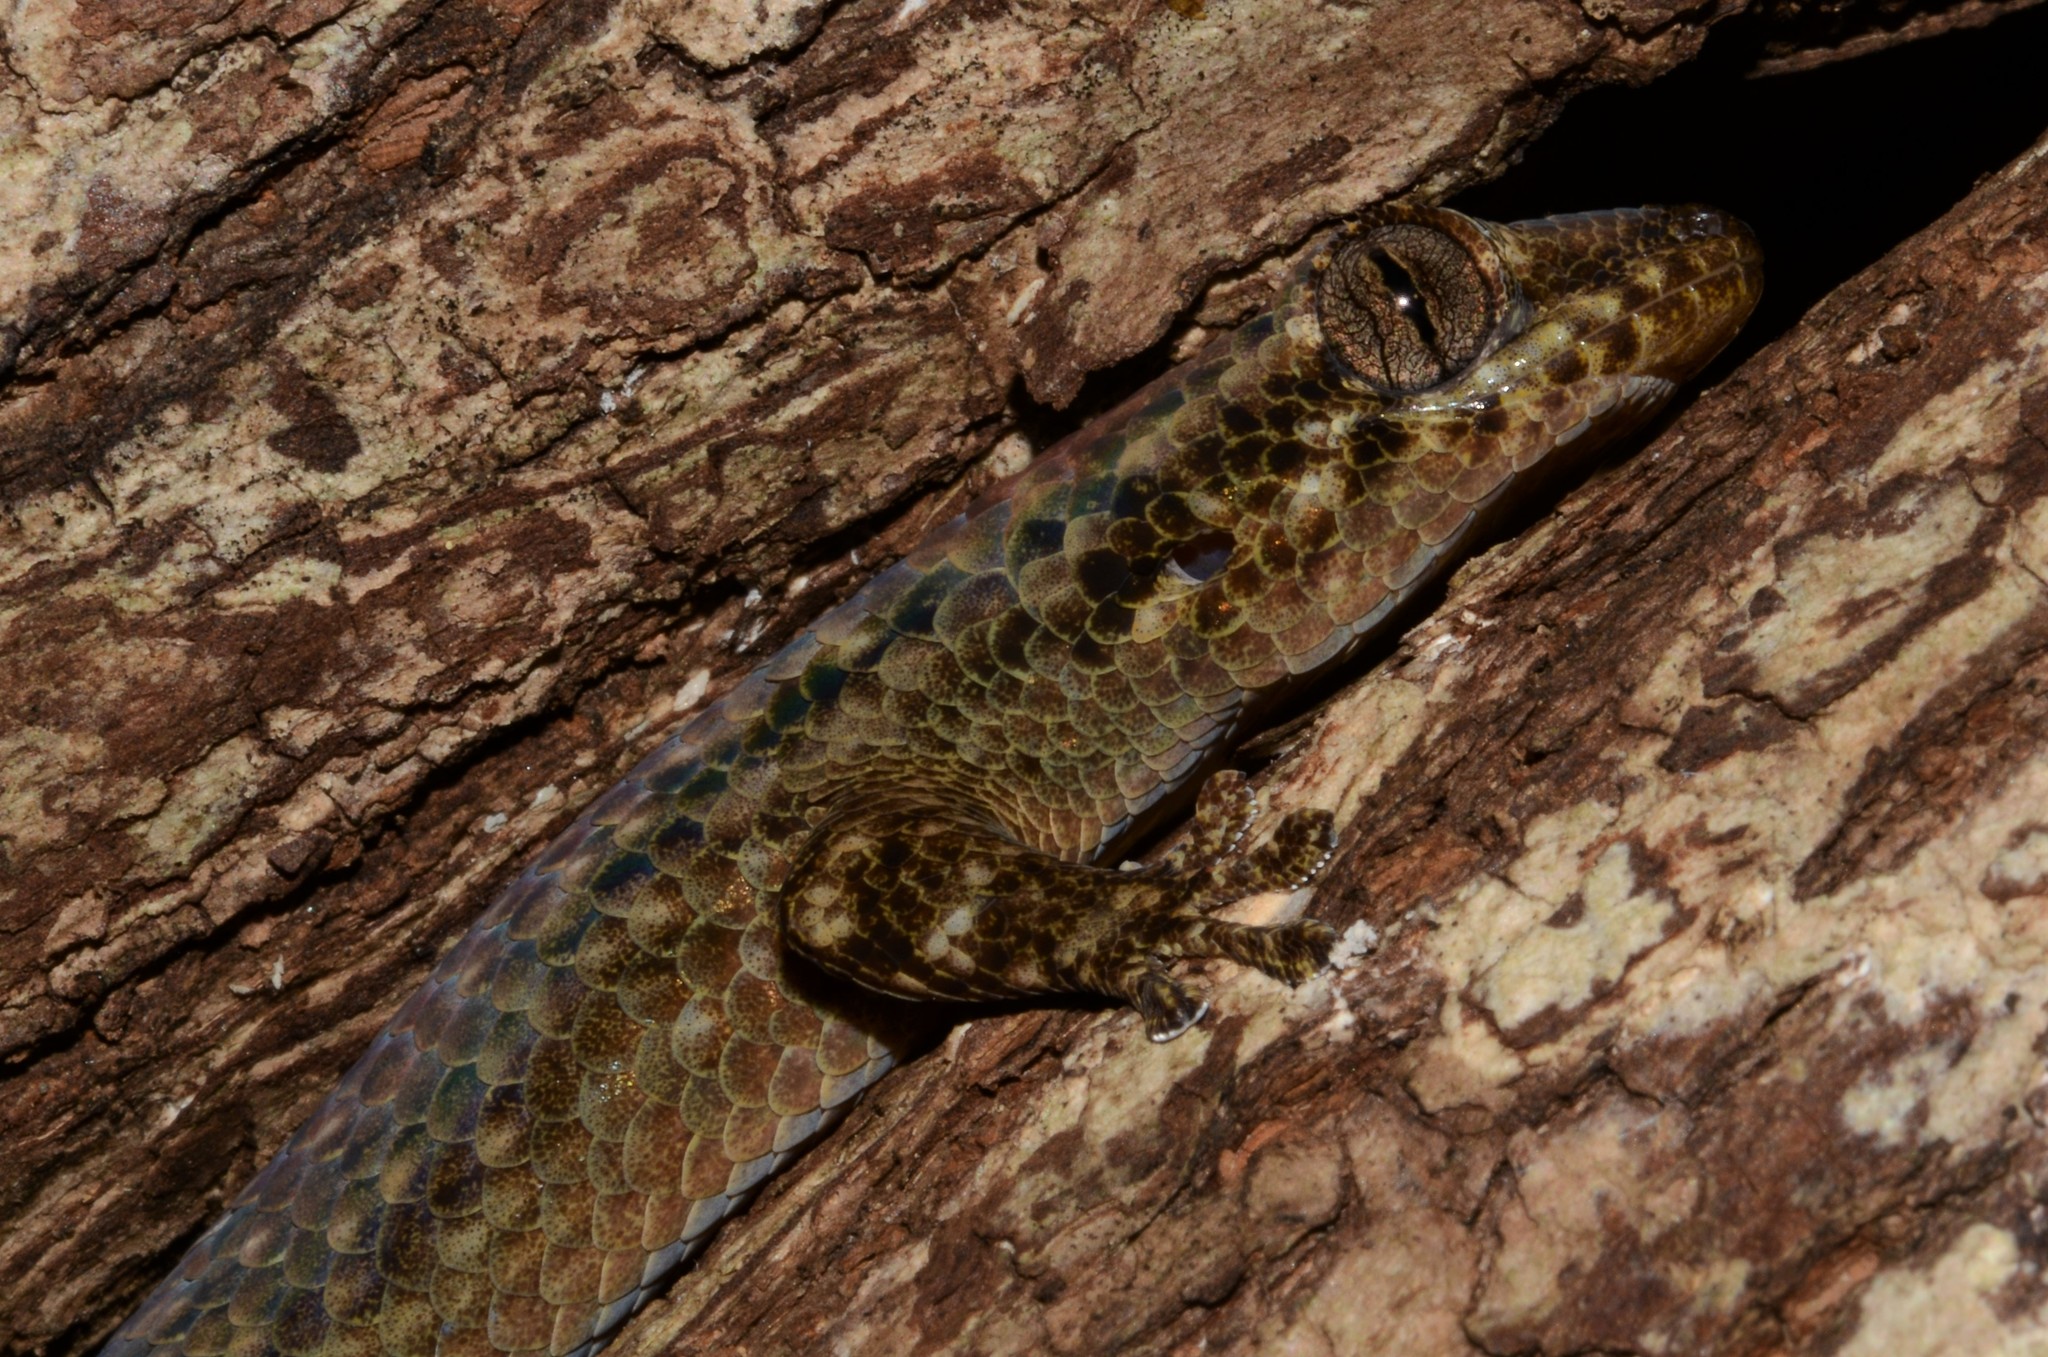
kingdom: Animalia
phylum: Chordata
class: Squamata
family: Gekkonidae
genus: Geckolepis
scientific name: Geckolepis maculata
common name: Peters' spotted gecko
